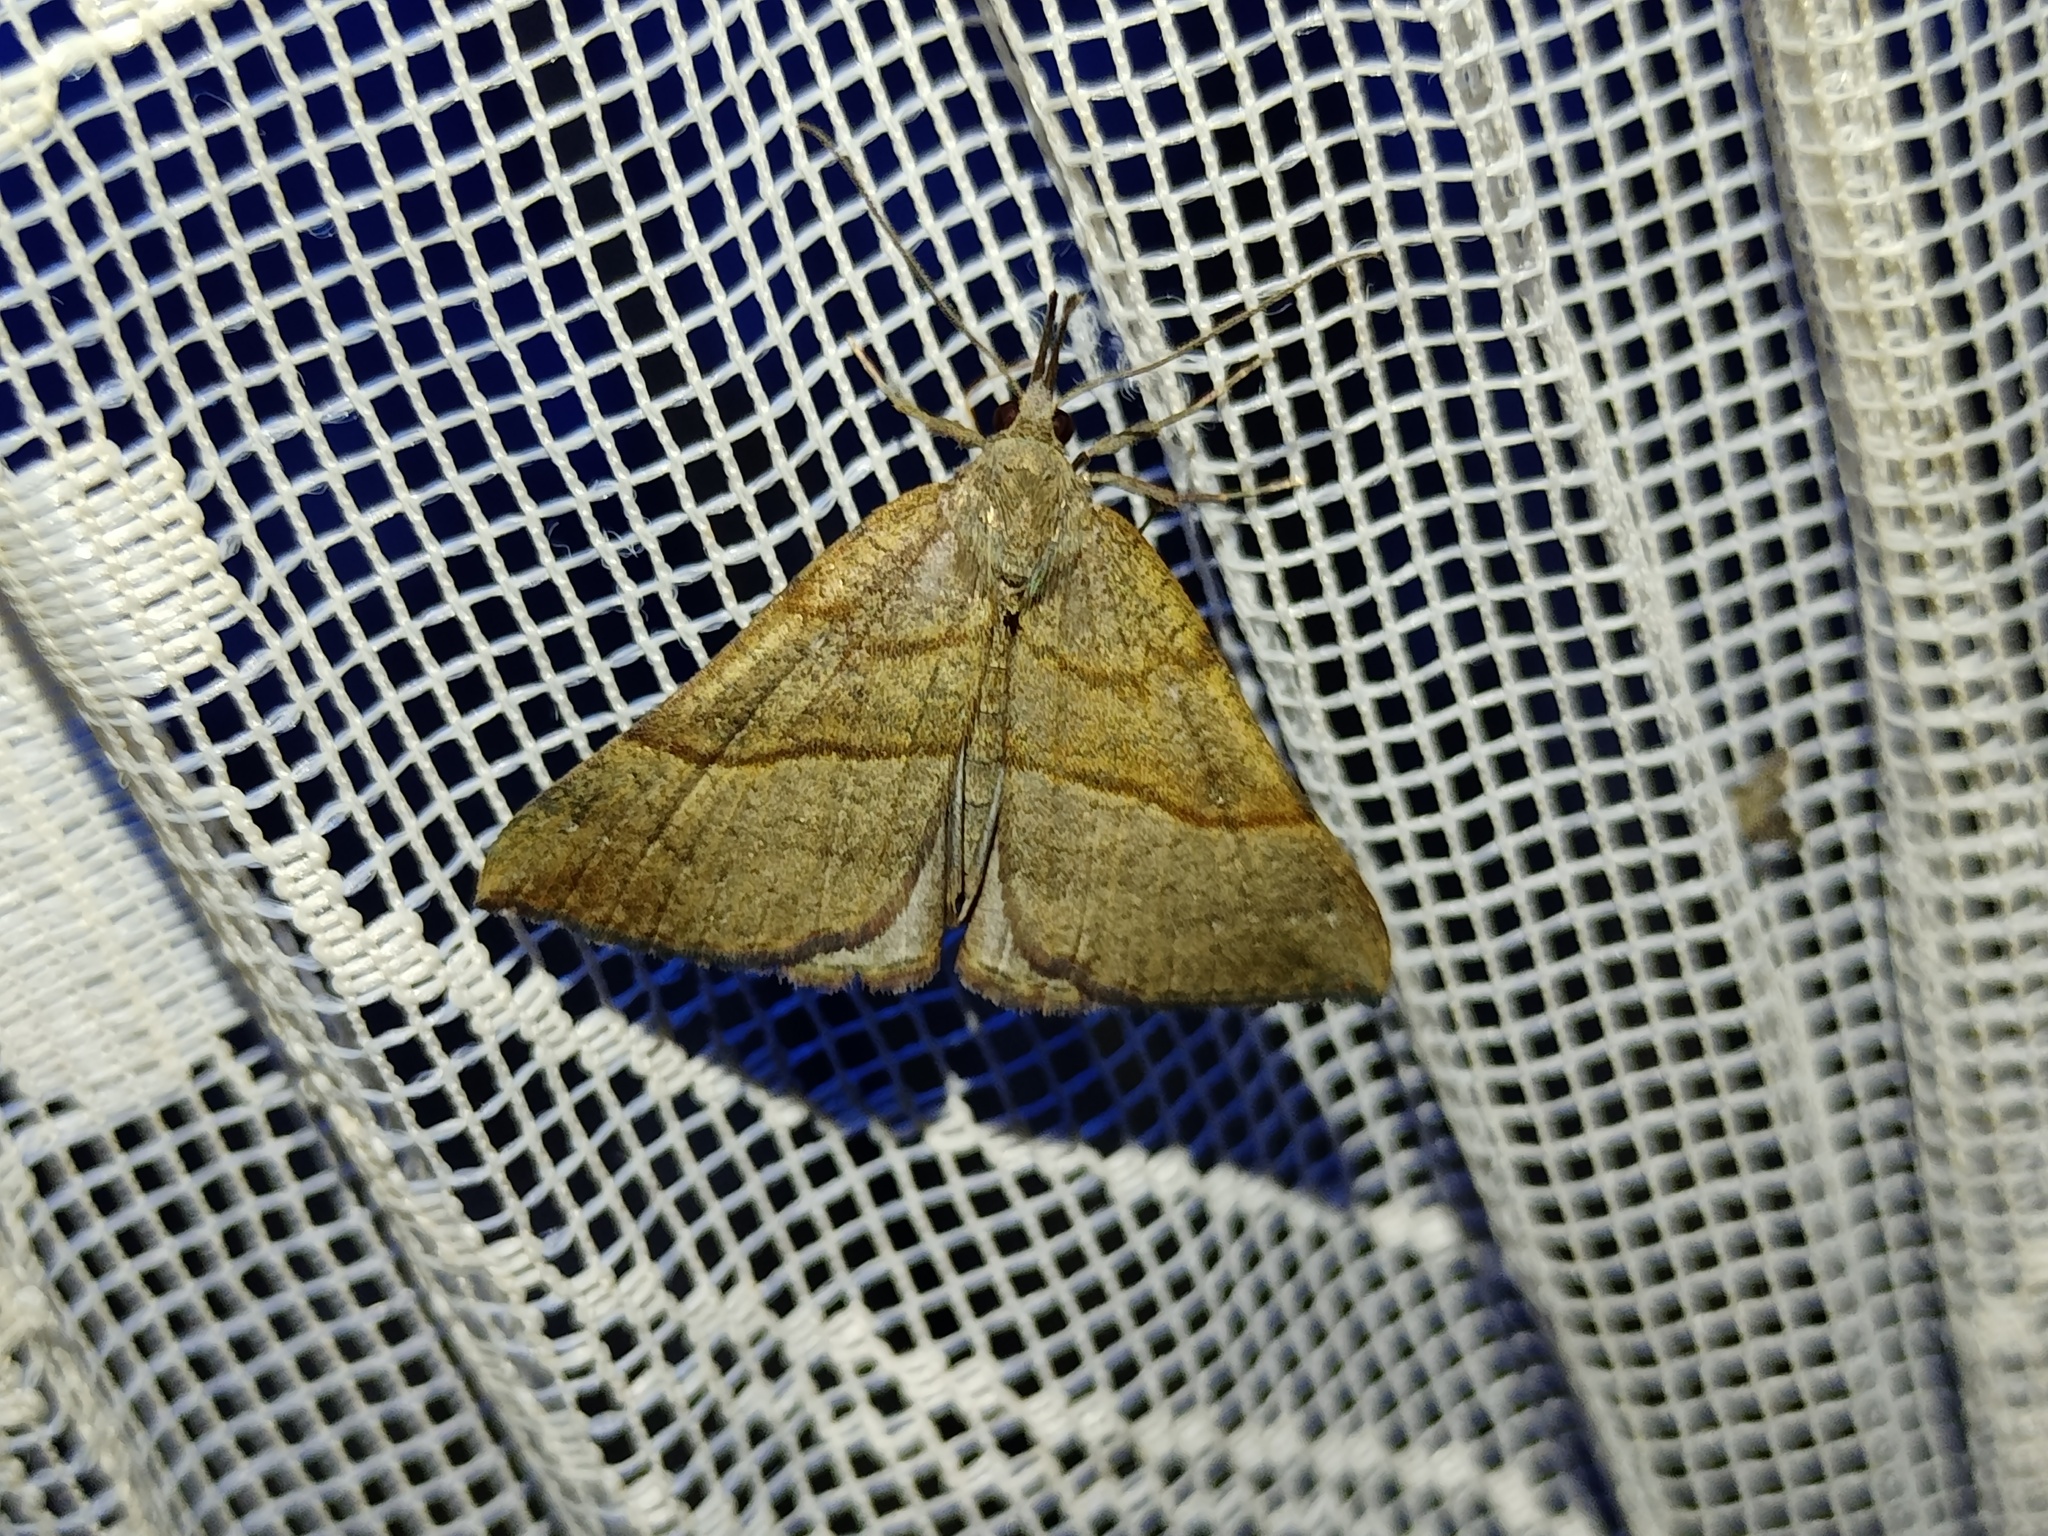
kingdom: Animalia
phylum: Arthropoda
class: Insecta
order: Lepidoptera
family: Erebidae
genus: Hypena
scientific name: Hypena proboscidalis
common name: Snout
